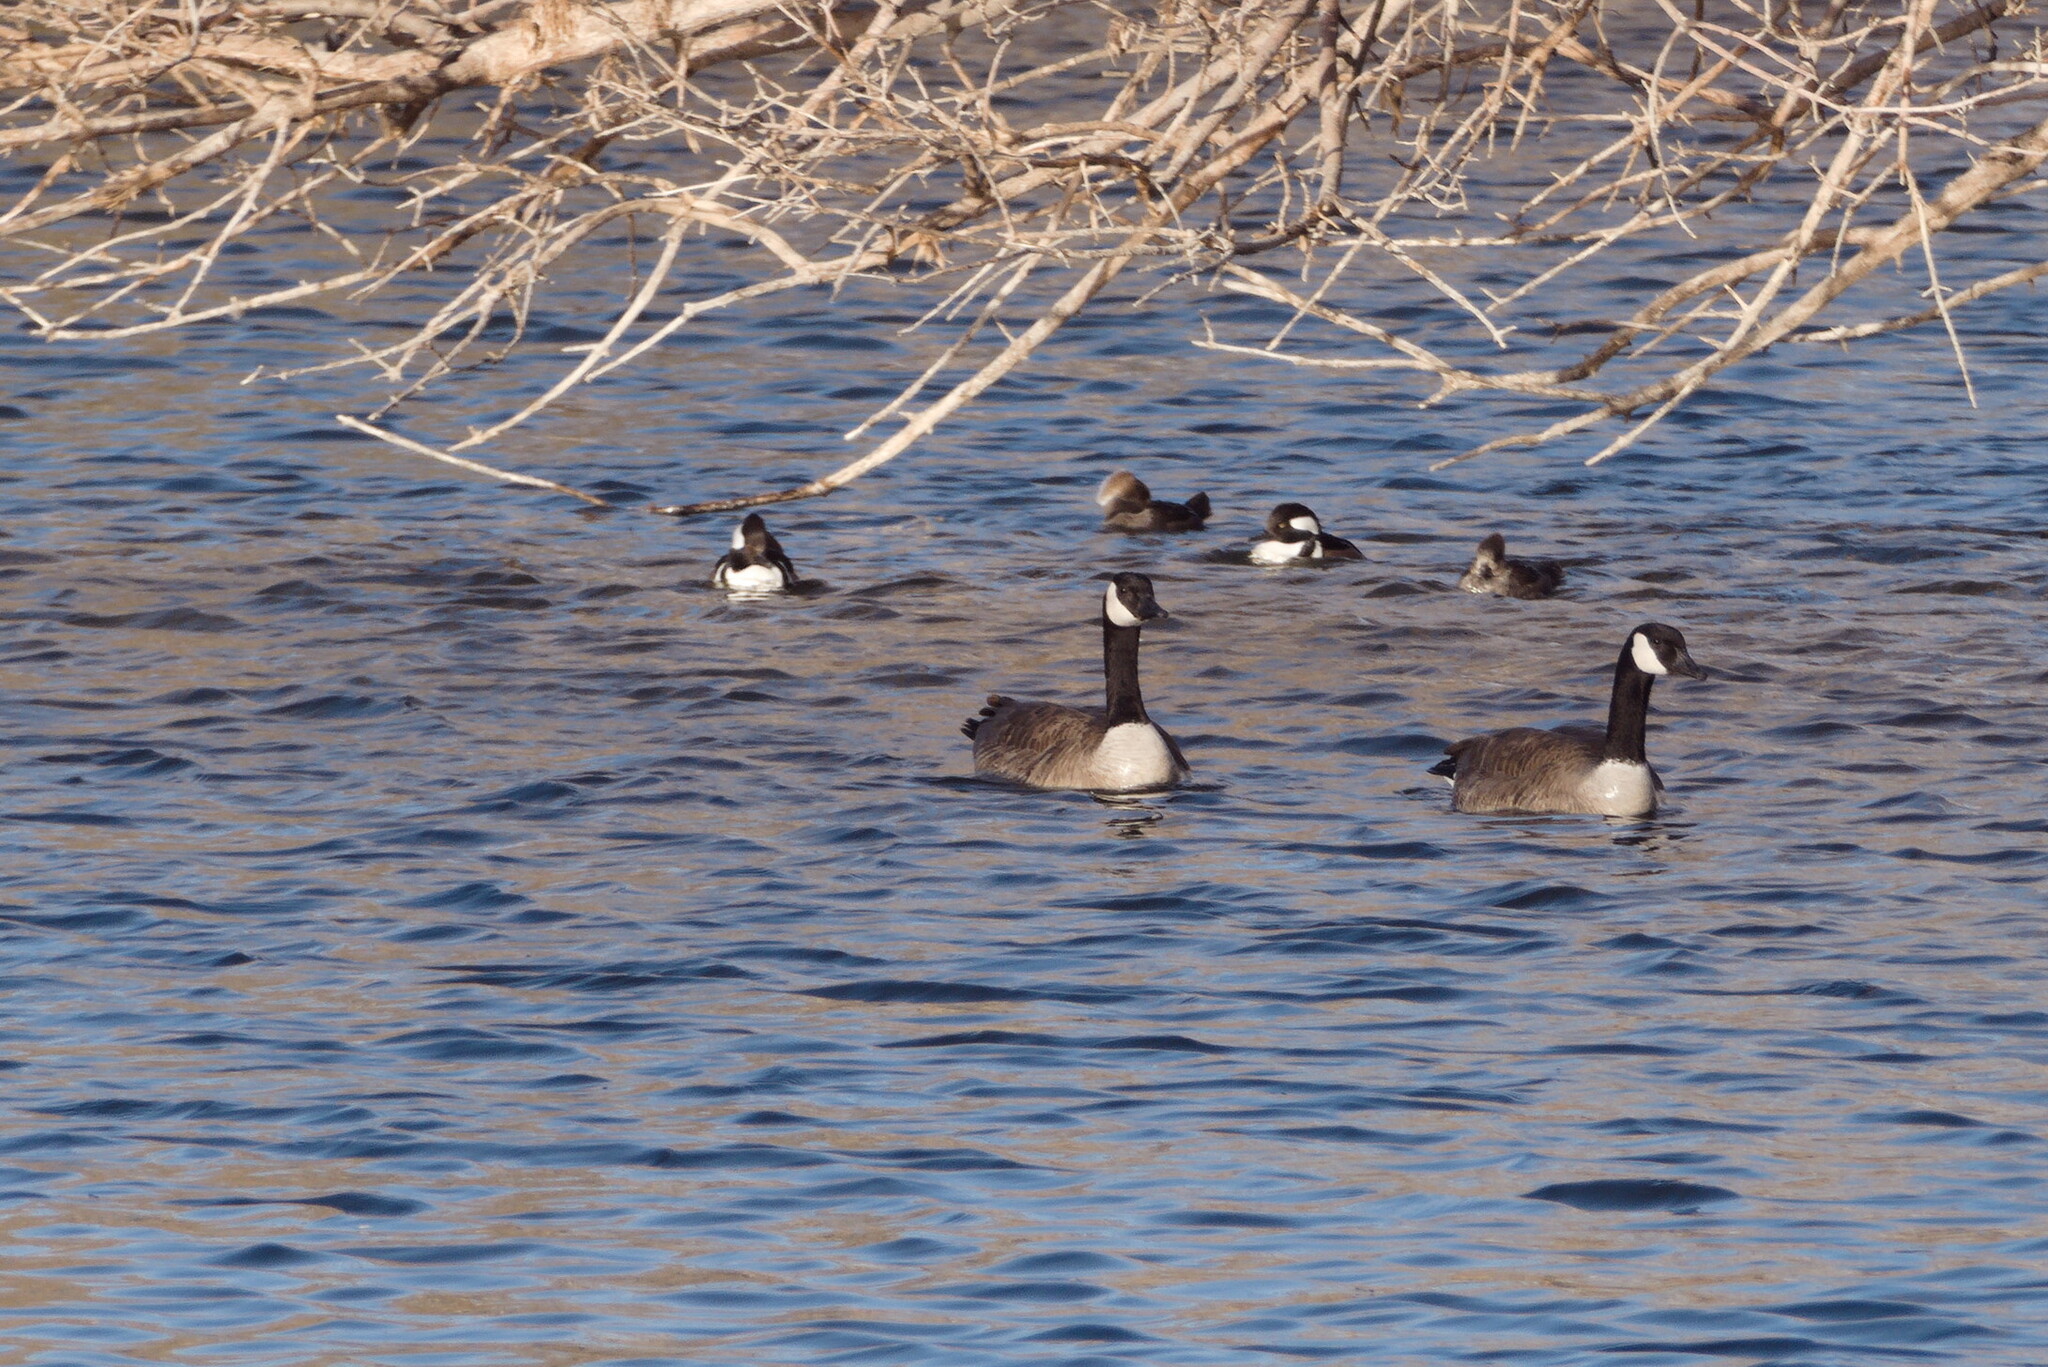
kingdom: Animalia
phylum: Chordata
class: Aves
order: Anseriformes
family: Anatidae
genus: Lophodytes
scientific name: Lophodytes cucullatus
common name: Hooded merganser
